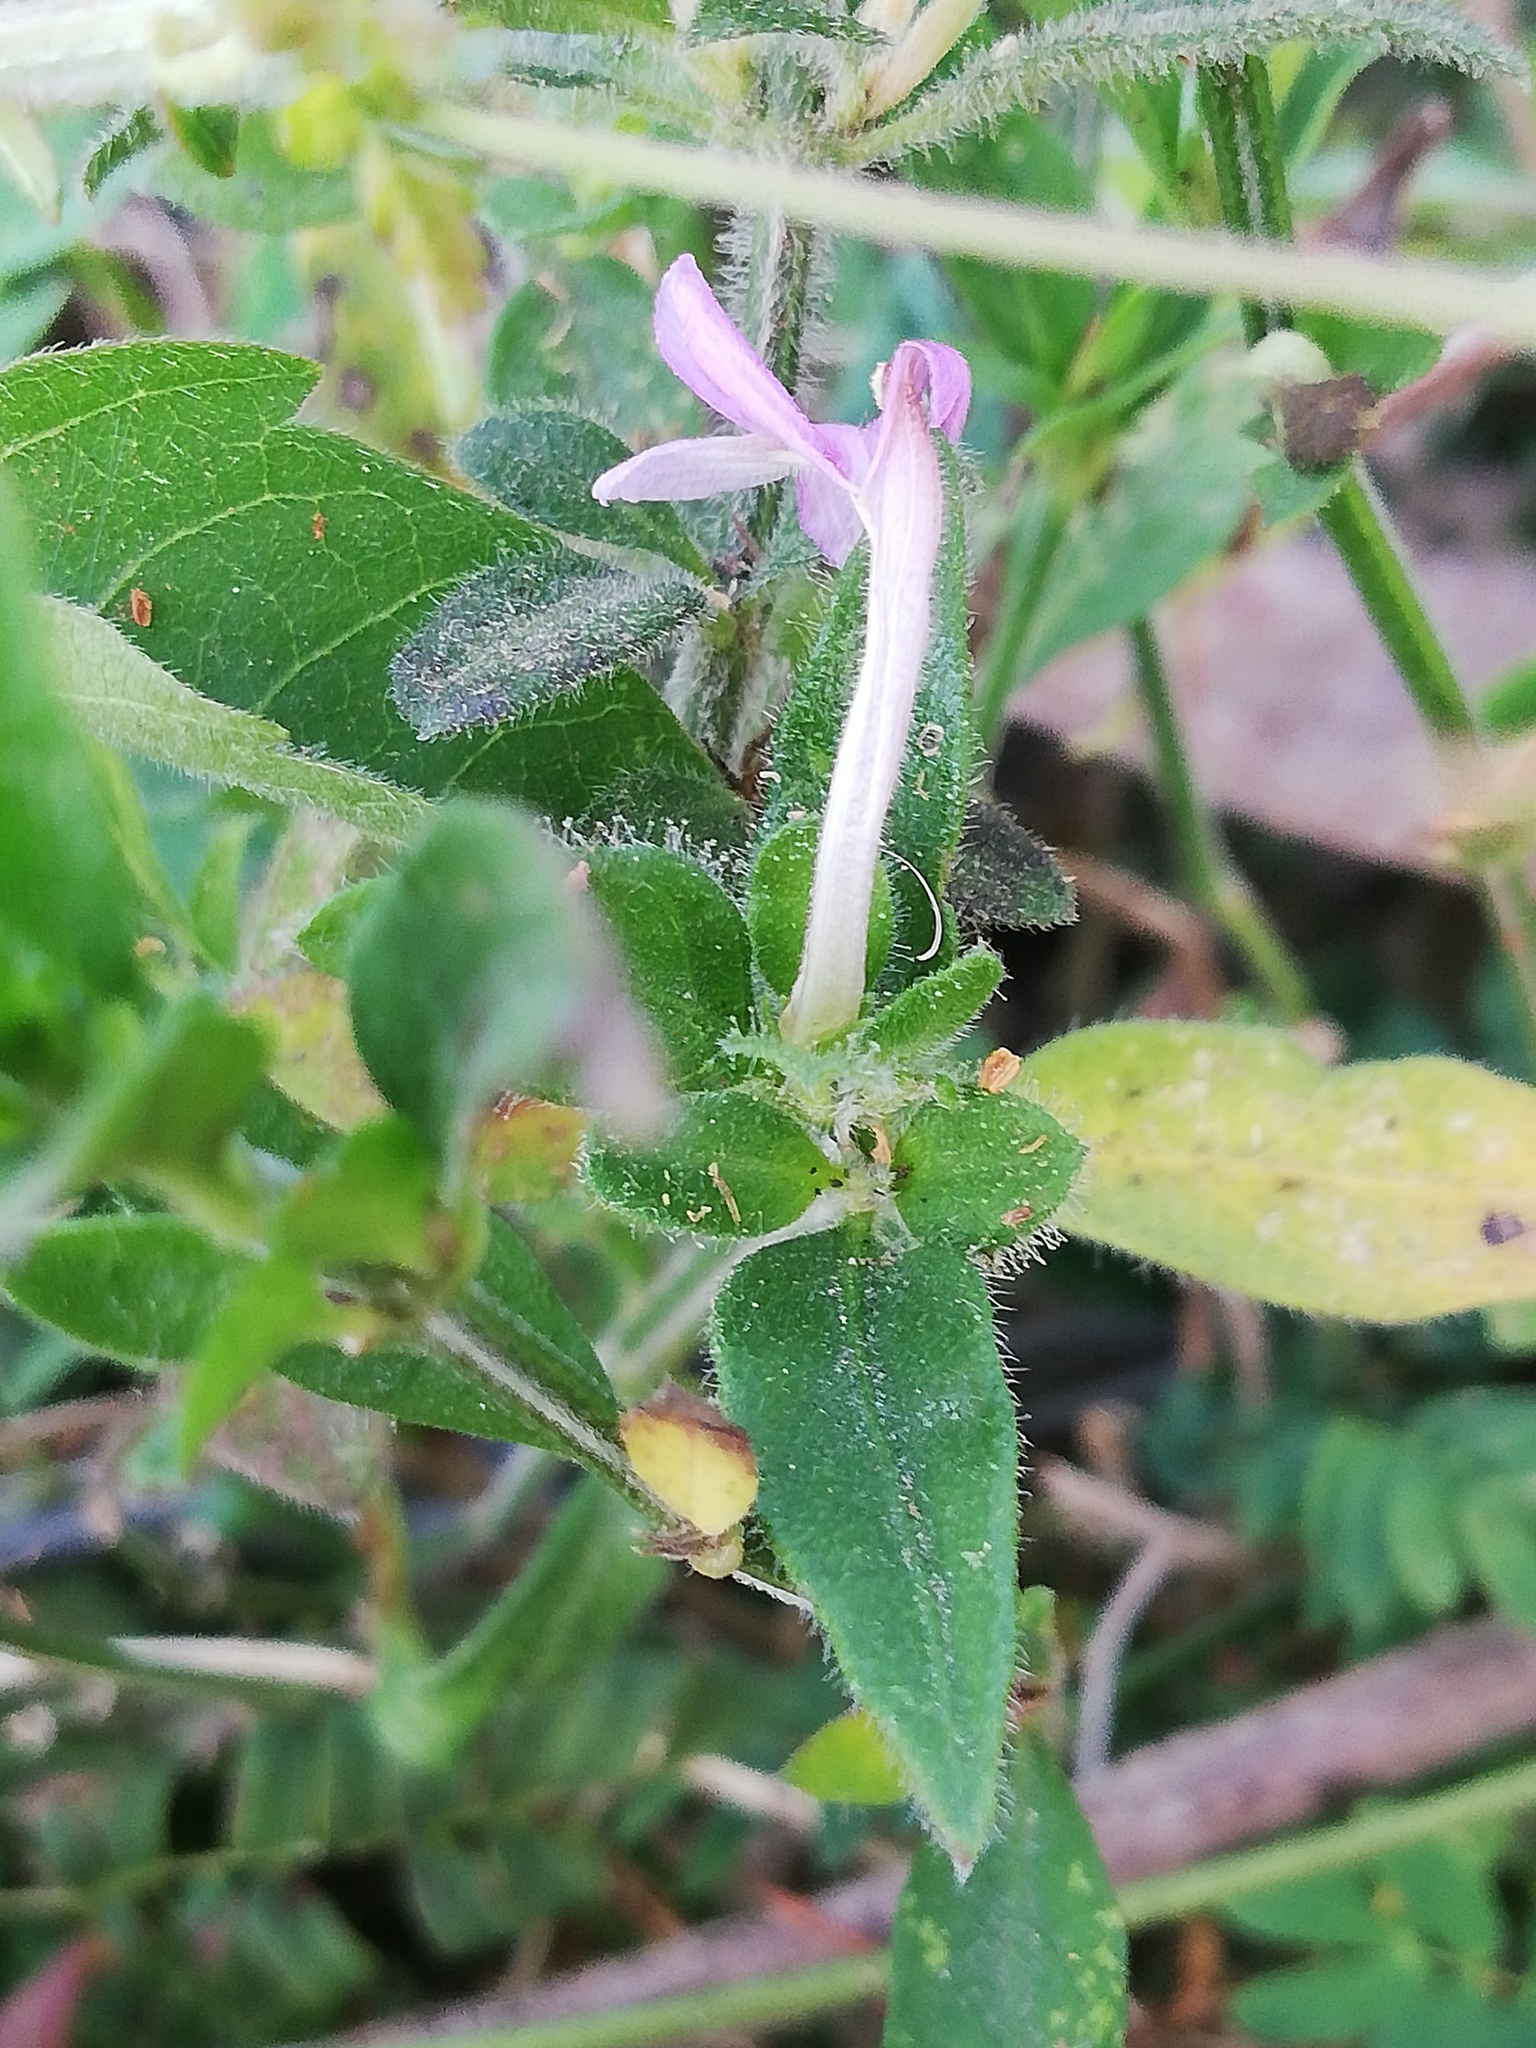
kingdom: Plantae
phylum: Tracheophyta
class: Magnoliopsida
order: Lamiales
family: Acanthaceae
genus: Justicia
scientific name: Justicia pilosella
